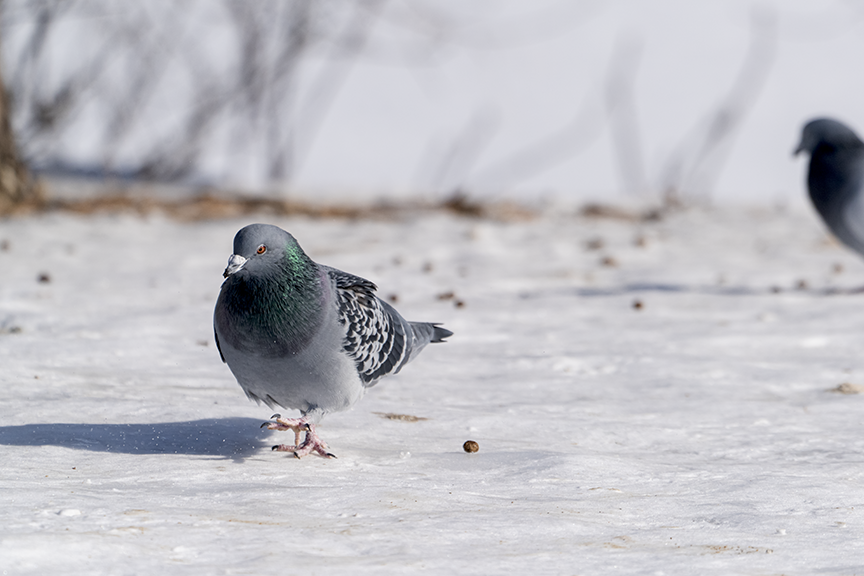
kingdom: Animalia
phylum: Chordata
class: Aves
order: Columbiformes
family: Columbidae
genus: Columba
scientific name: Columba livia
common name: Rock pigeon
